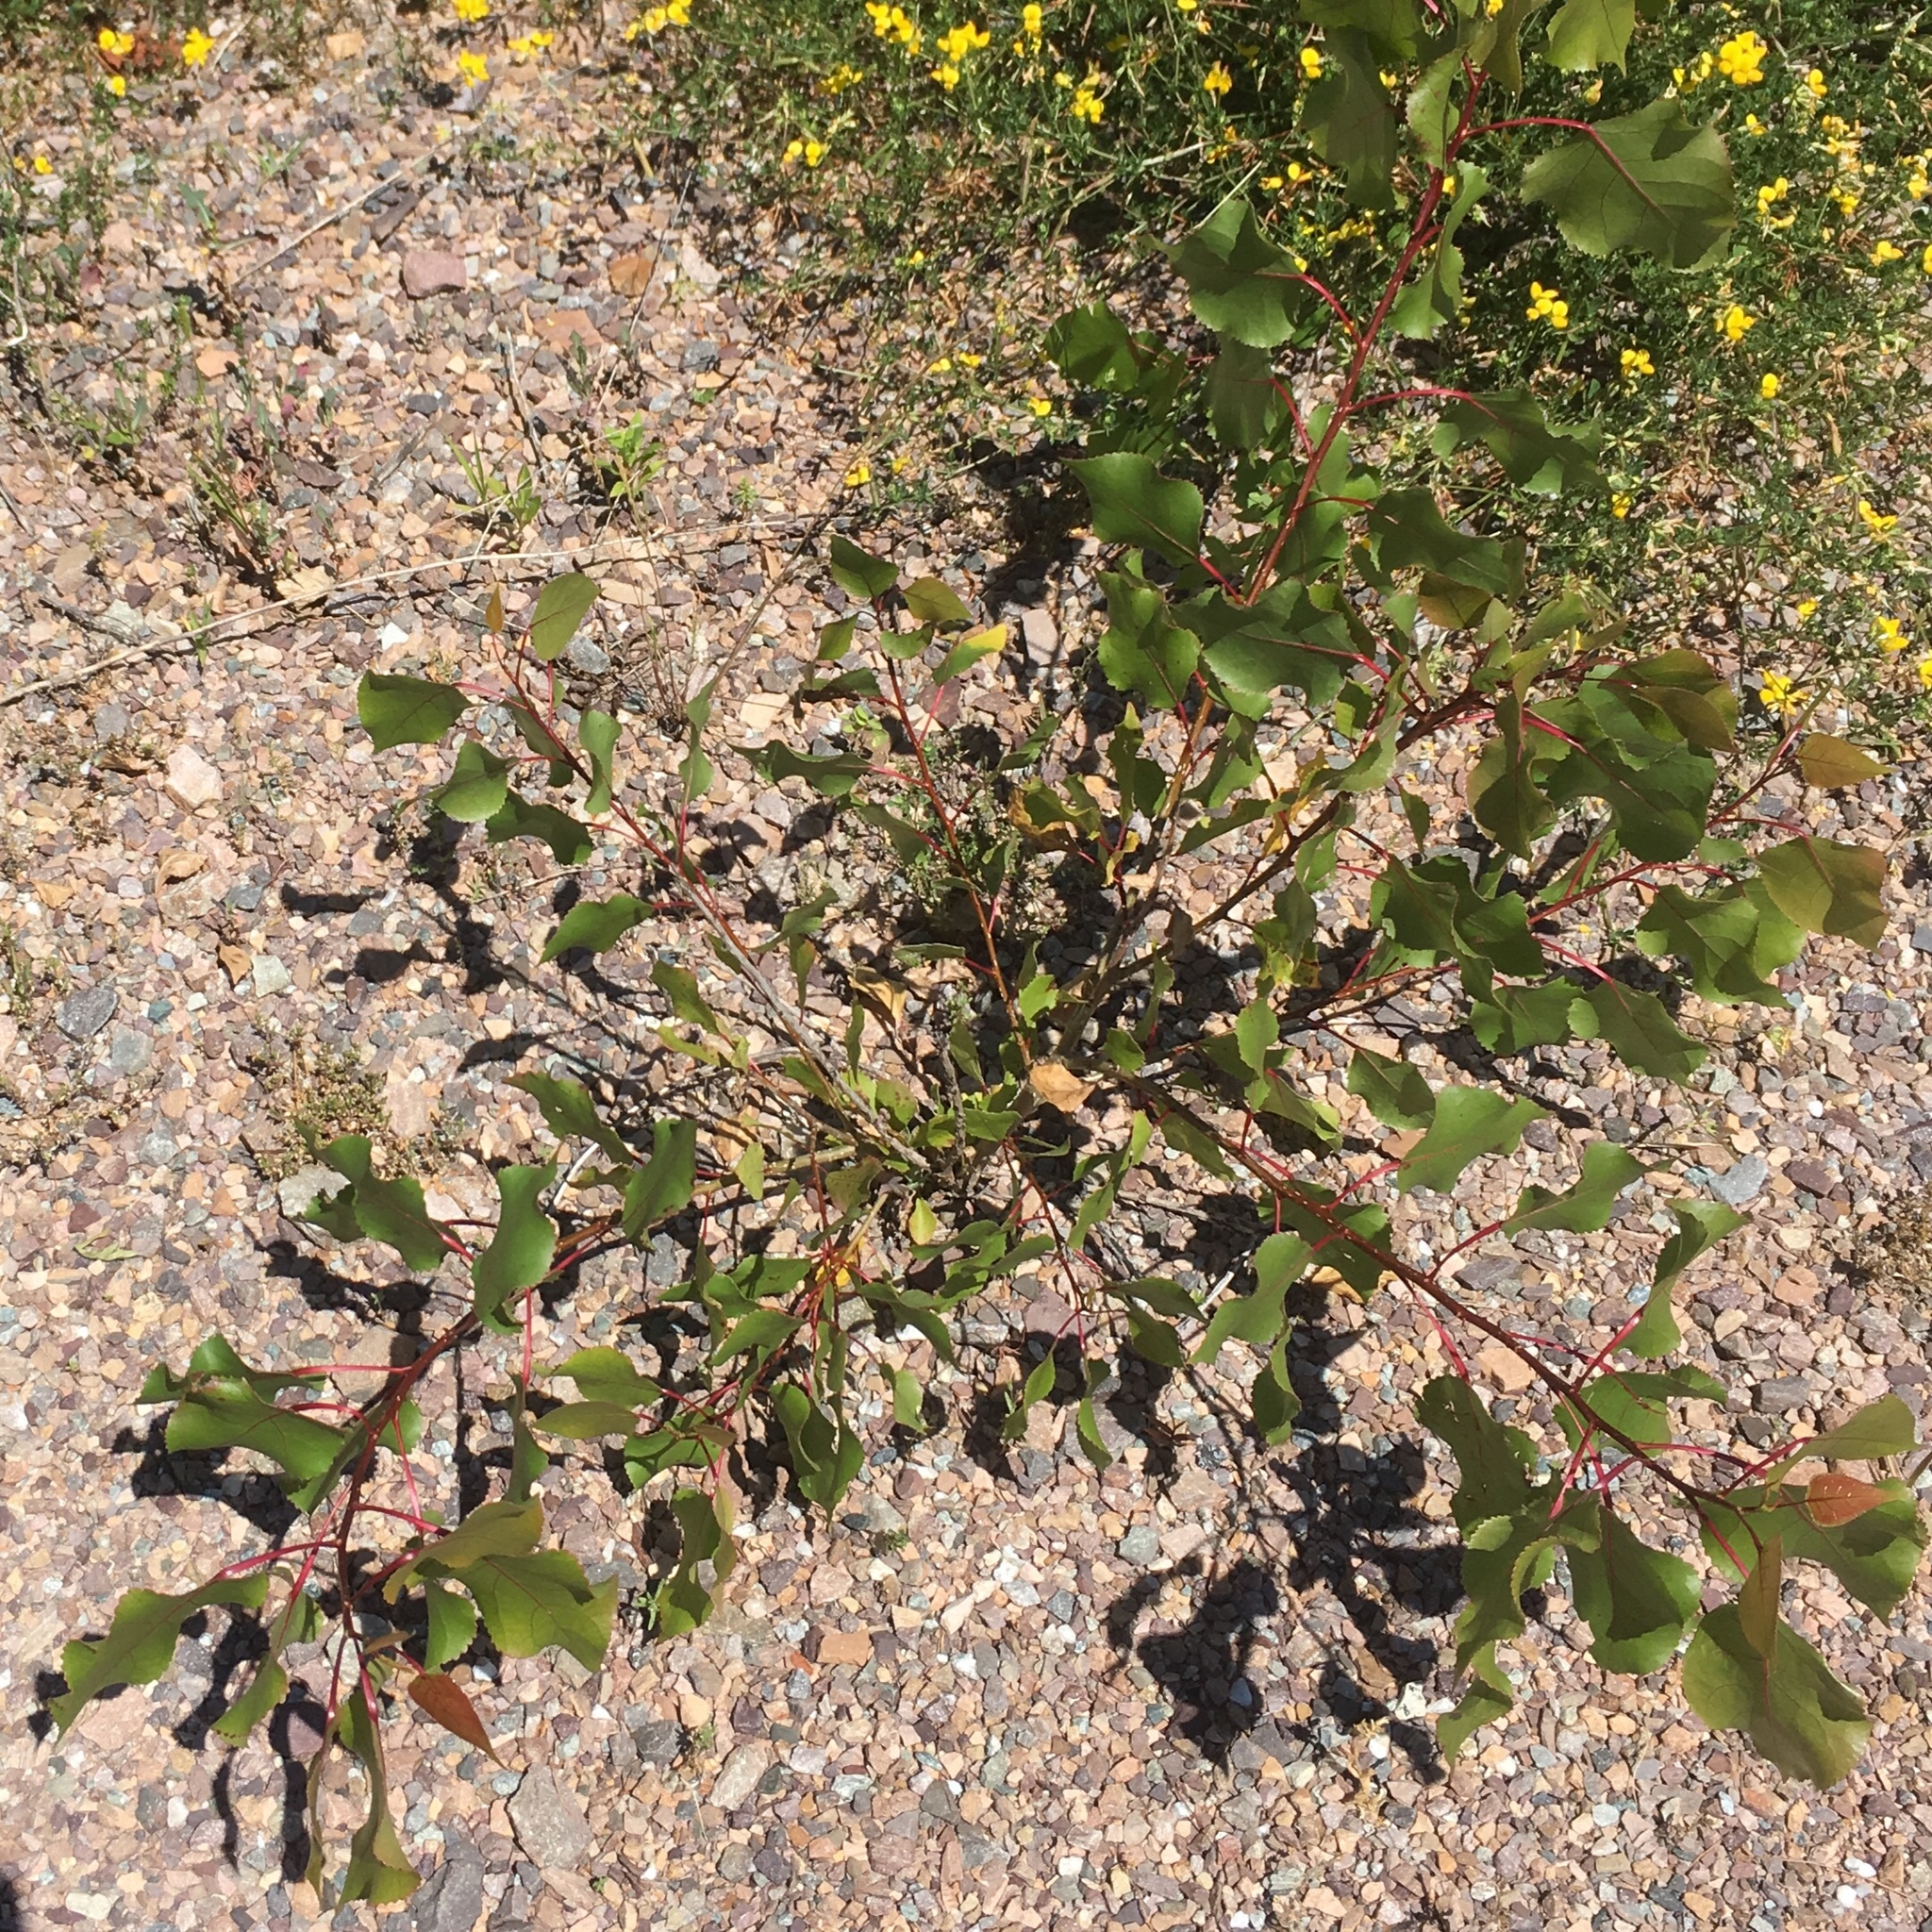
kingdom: Plantae
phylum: Tracheophyta
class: Magnoliopsida
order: Malpighiales
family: Salicaceae
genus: Populus
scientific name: Populus deltoides
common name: Eastern cottonwood
